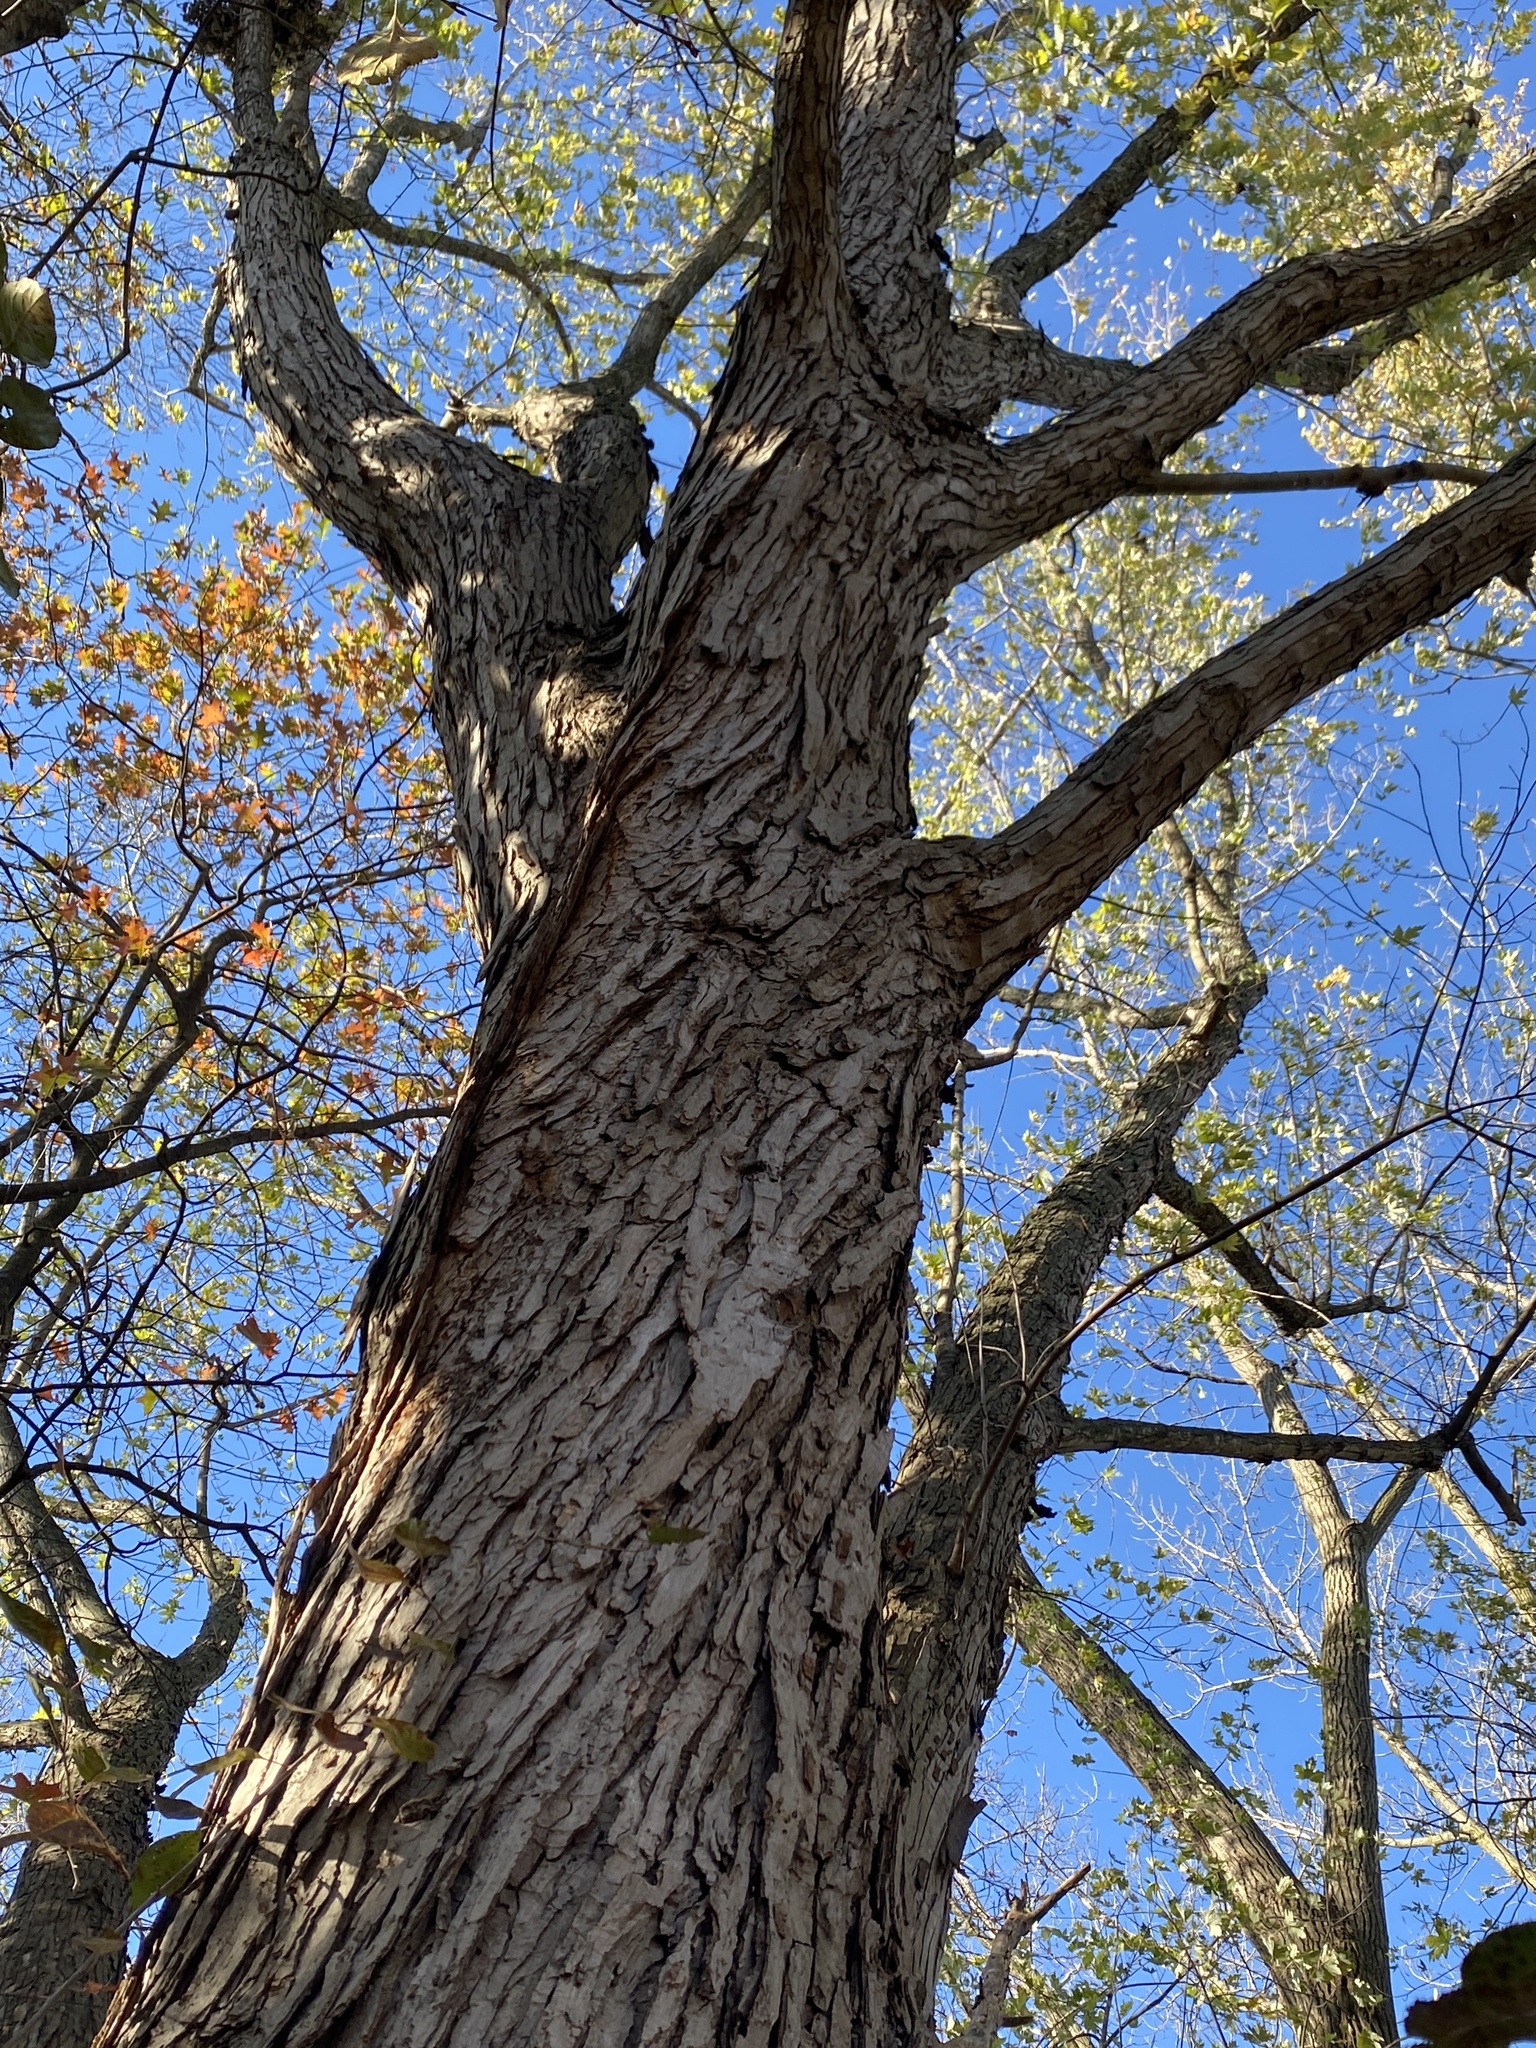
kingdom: Plantae
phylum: Tracheophyta
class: Magnoliopsida
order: Sapindales
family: Sapindaceae
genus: Acer
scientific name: Acer saccharinum
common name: Silver maple
